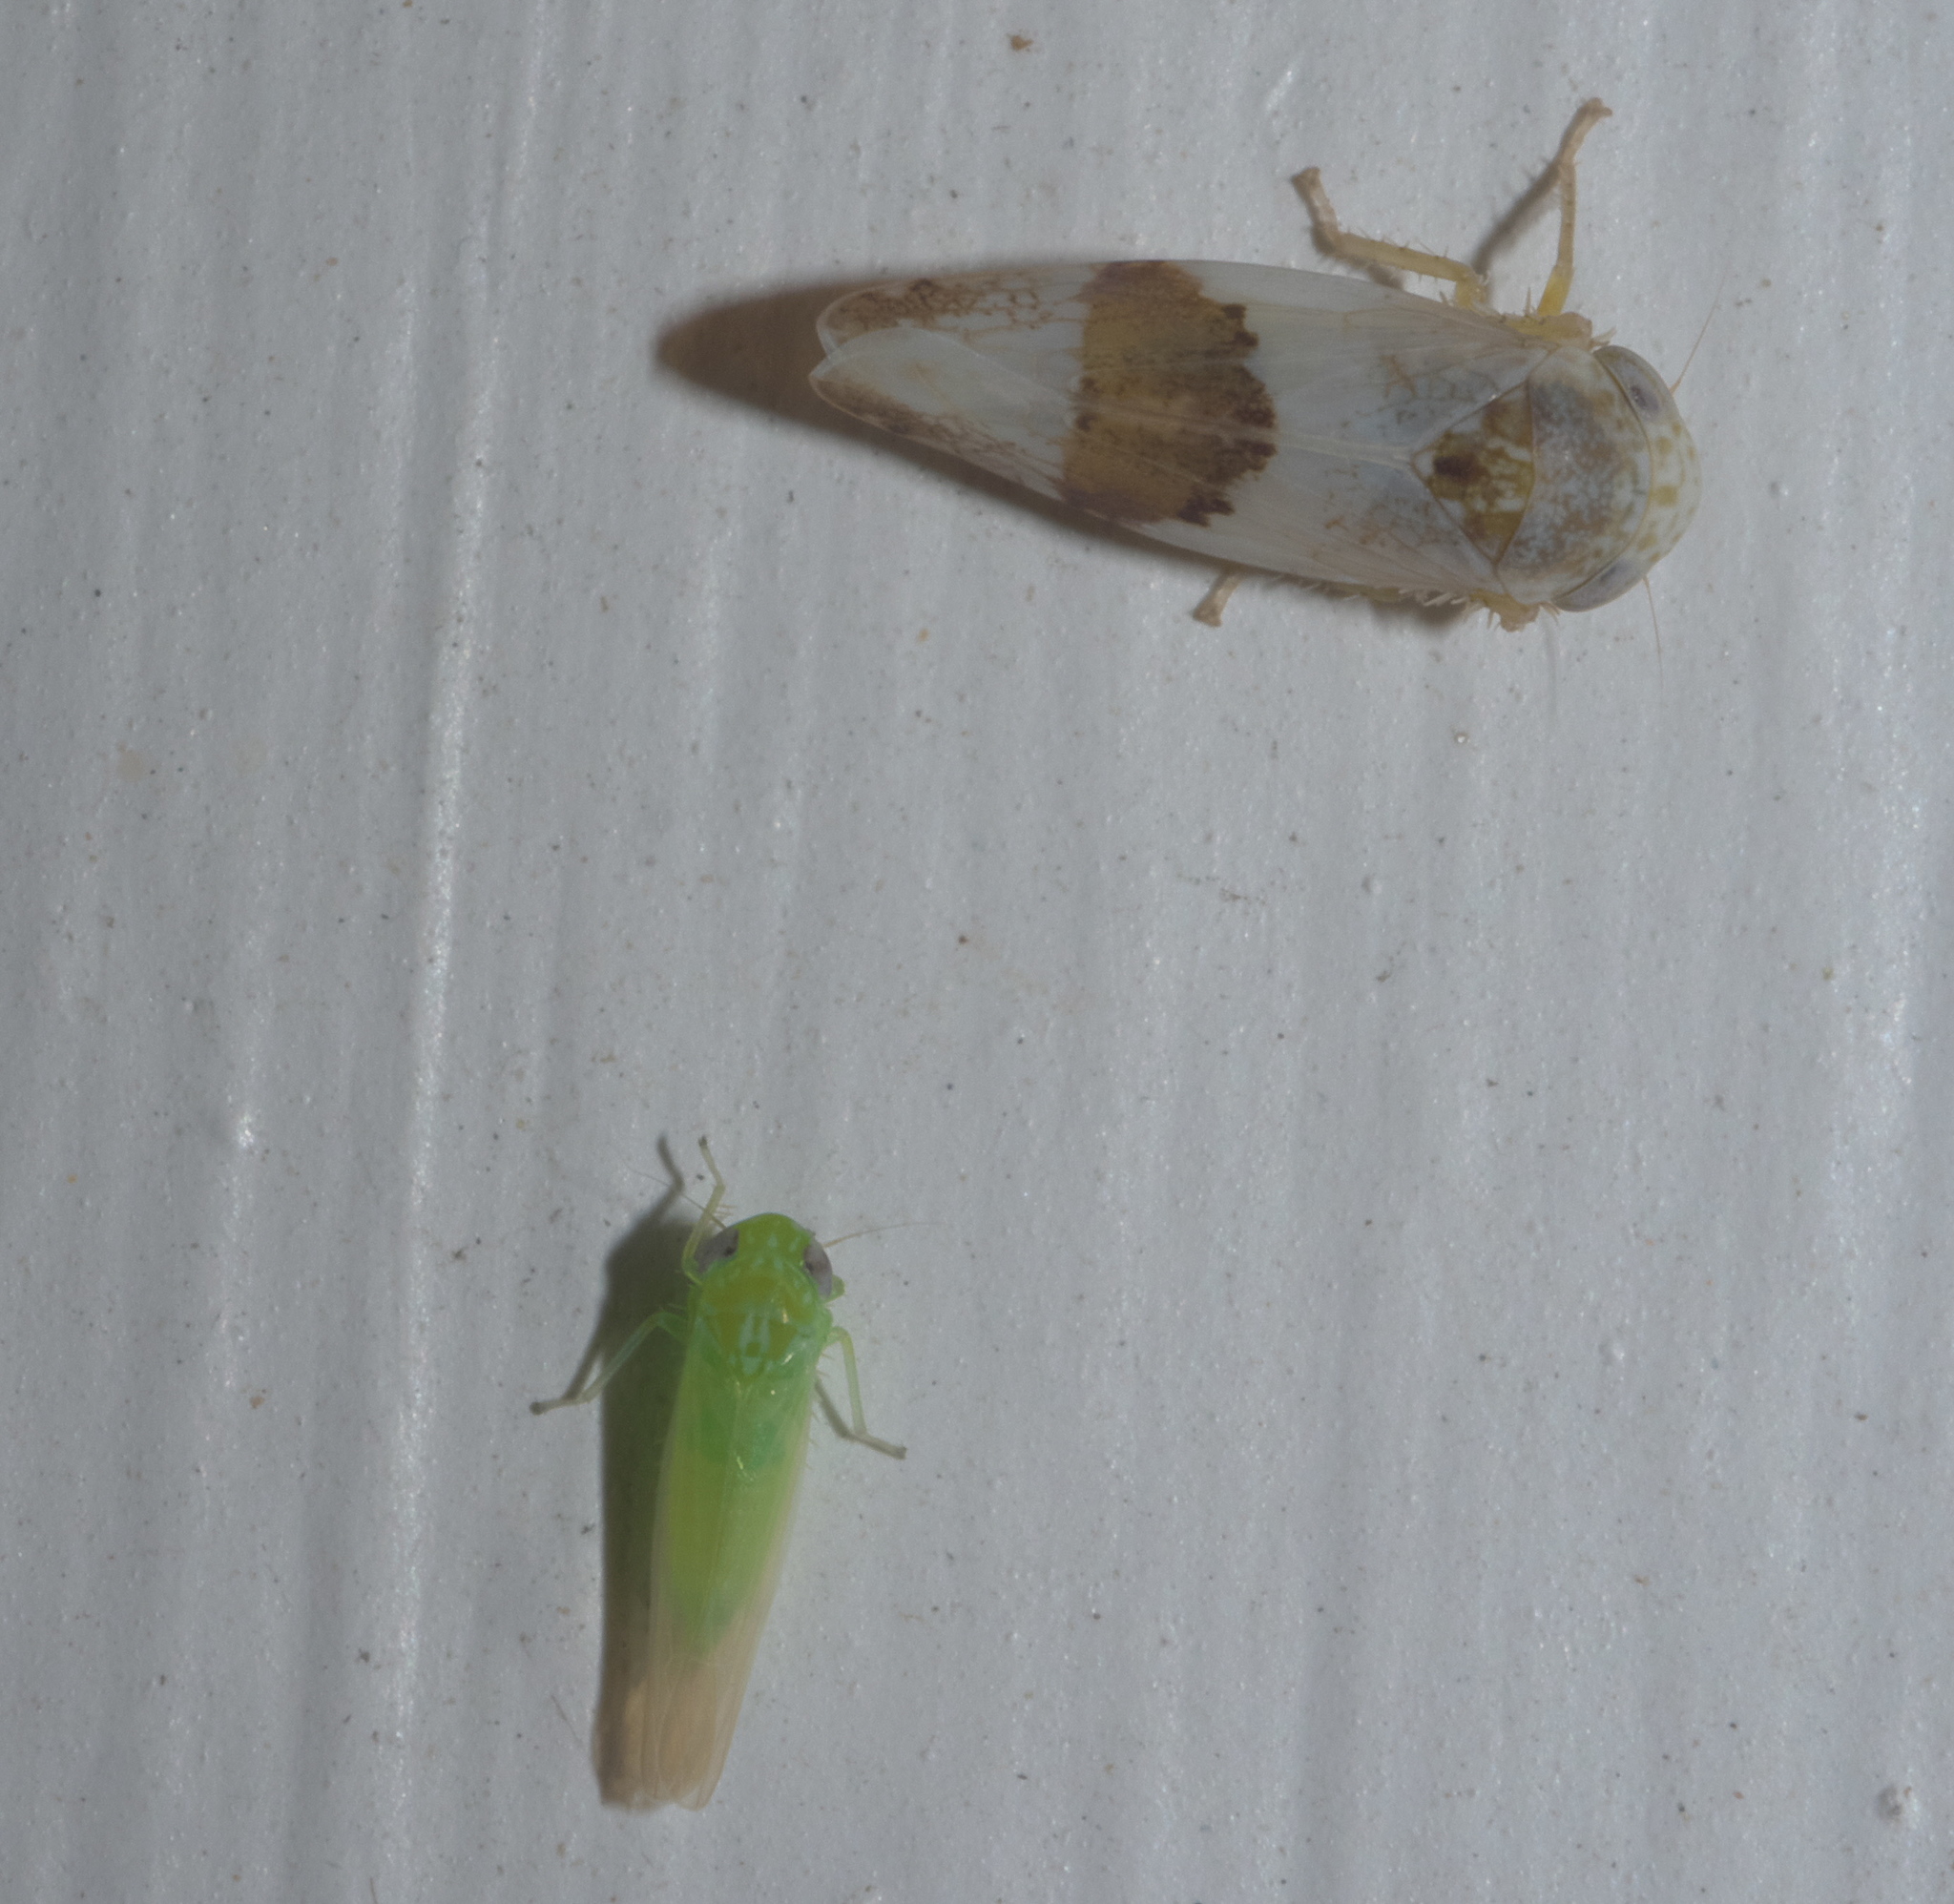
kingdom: Animalia
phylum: Arthropoda
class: Insecta
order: Hemiptera
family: Cicadellidae
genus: Empoasca
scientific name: Empoasca fabae
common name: Potato leafhopper
